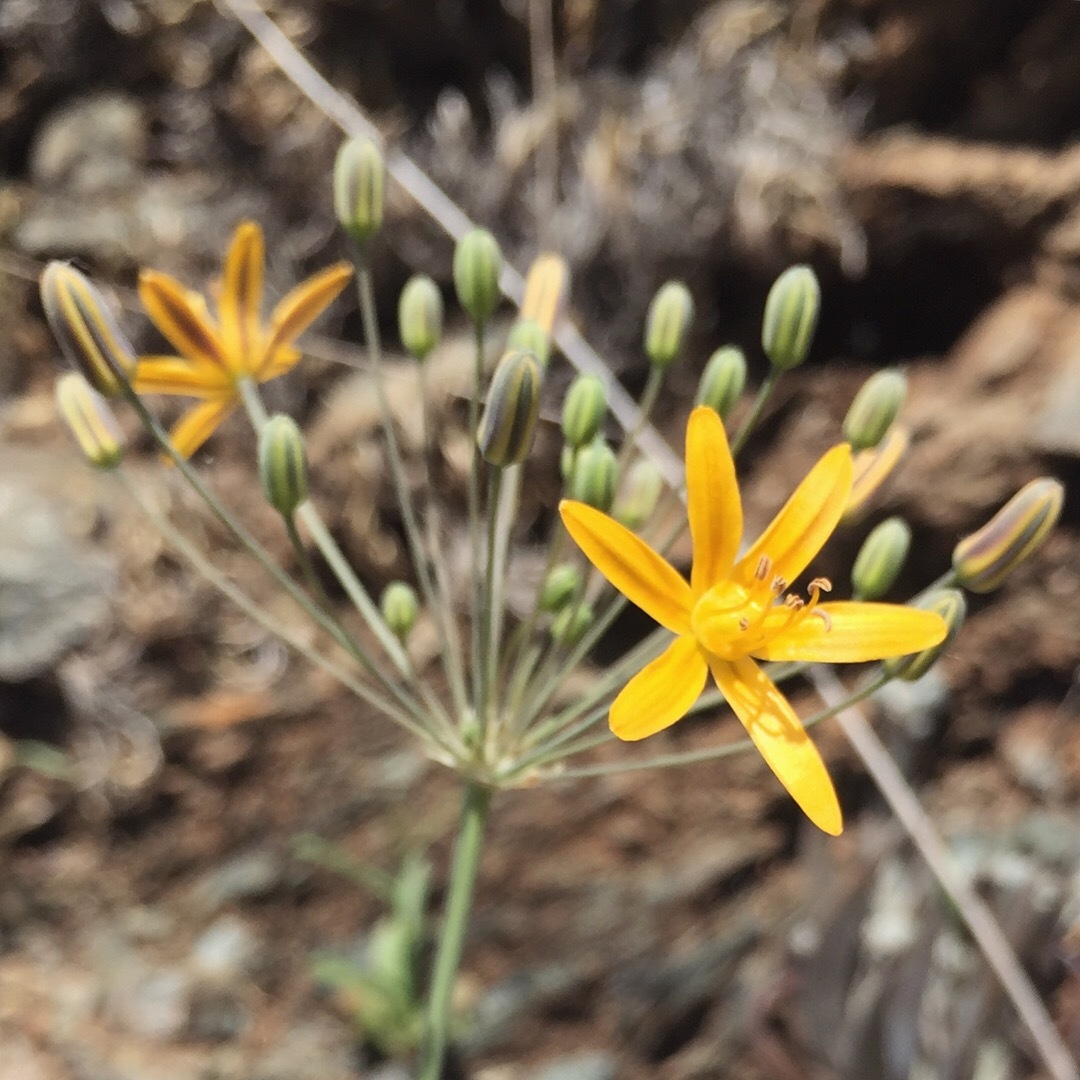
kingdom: Plantae
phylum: Tracheophyta
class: Liliopsida
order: Asparagales
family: Asparagaceae
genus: Bloomeria
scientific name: Bloomeria crocea
